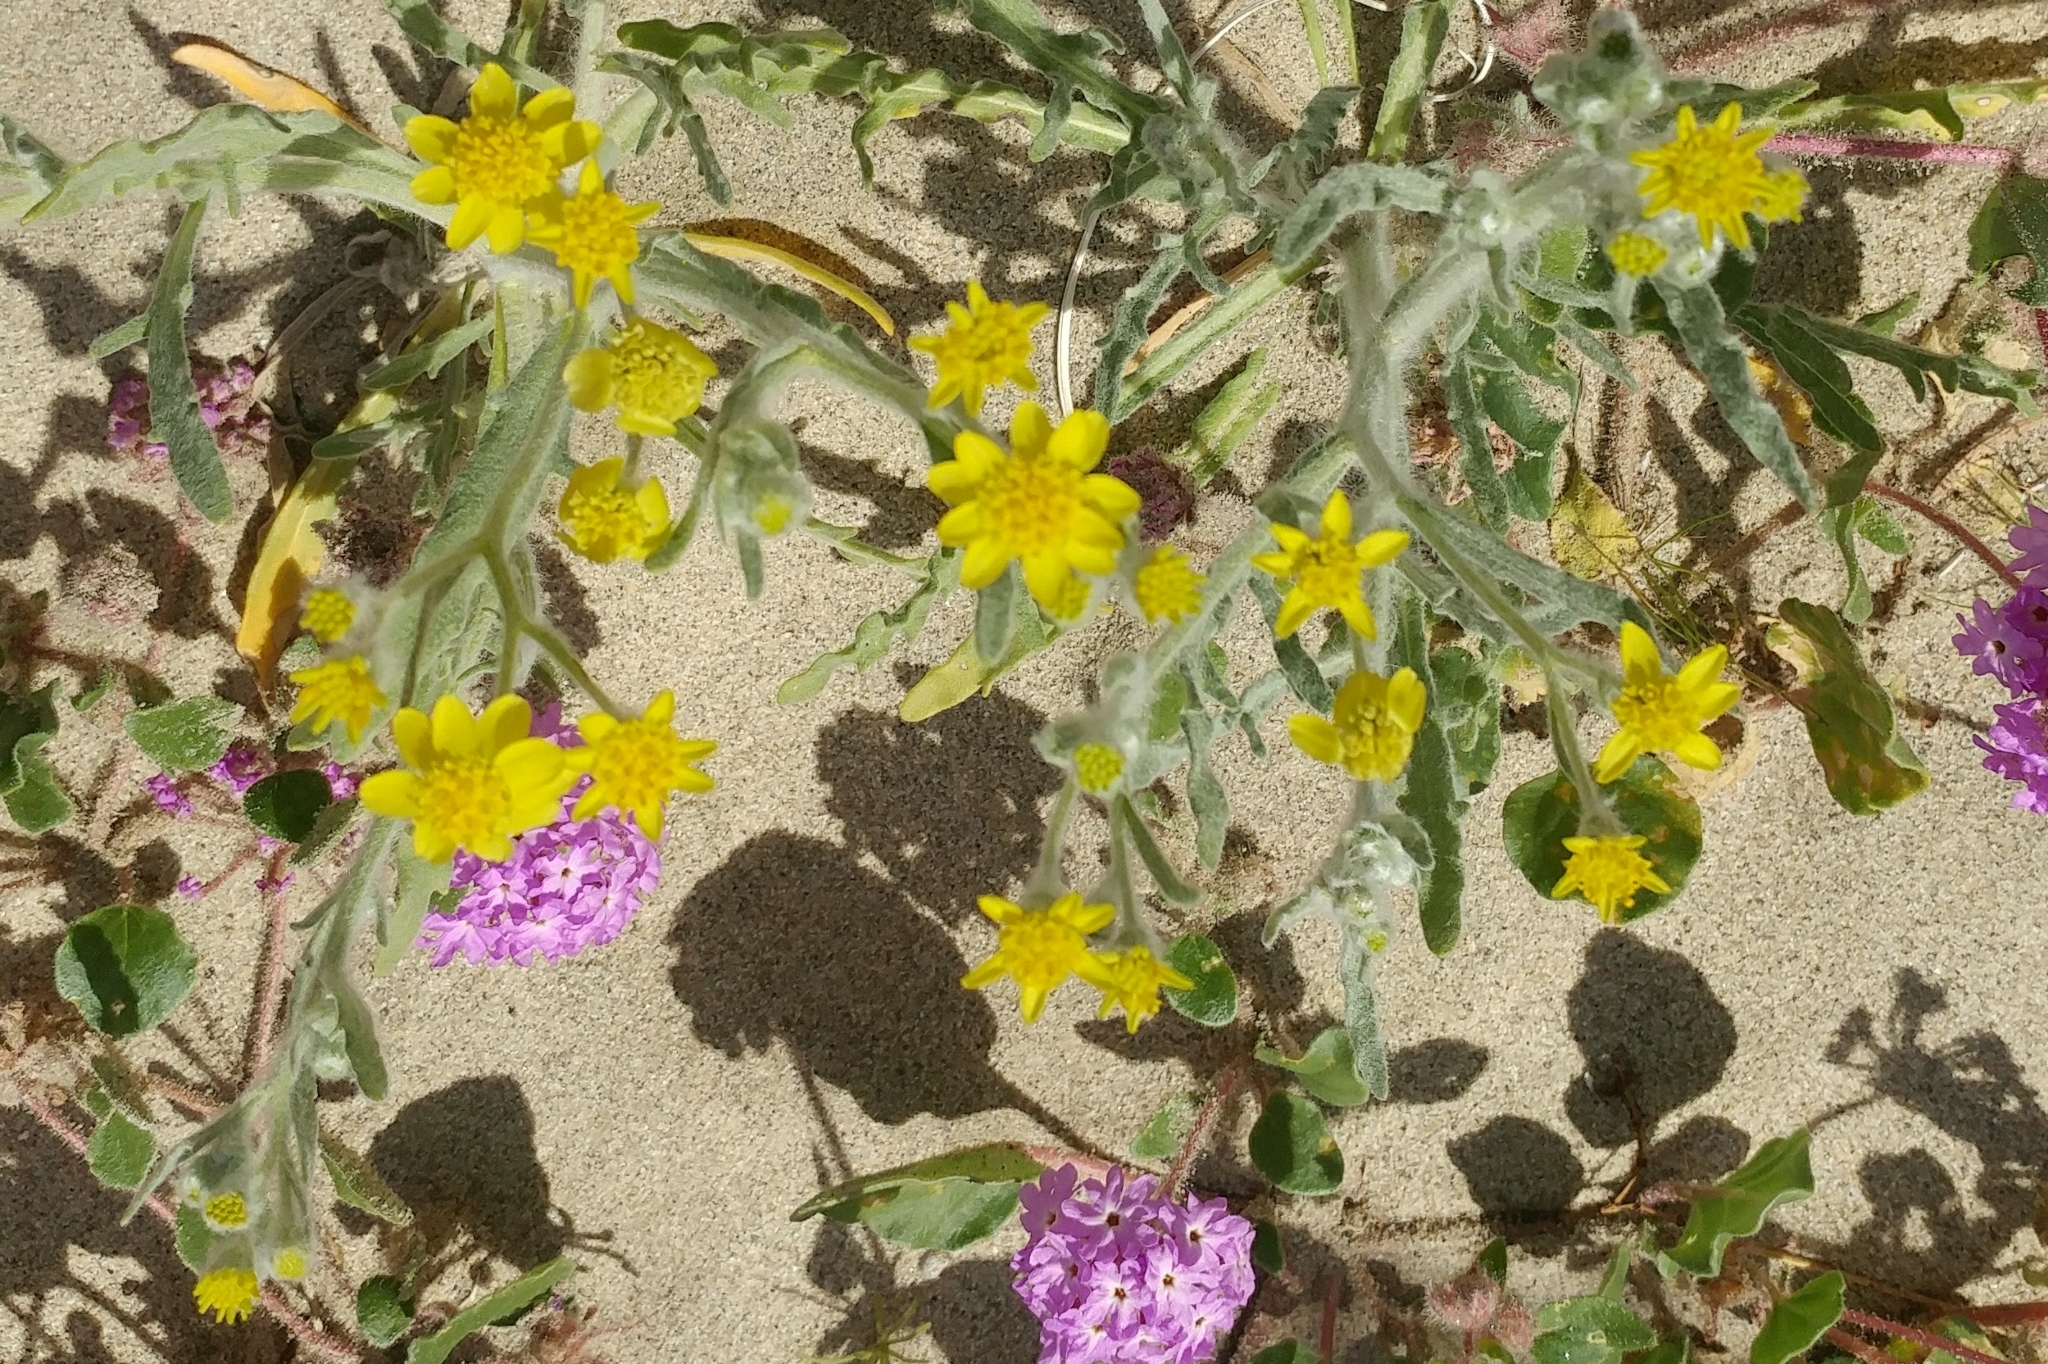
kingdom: Plantae
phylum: Tracheophyta
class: Magnoliopsida
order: Asterales
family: Asteraceae
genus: Baileya
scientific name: Baileya pauciradiata
